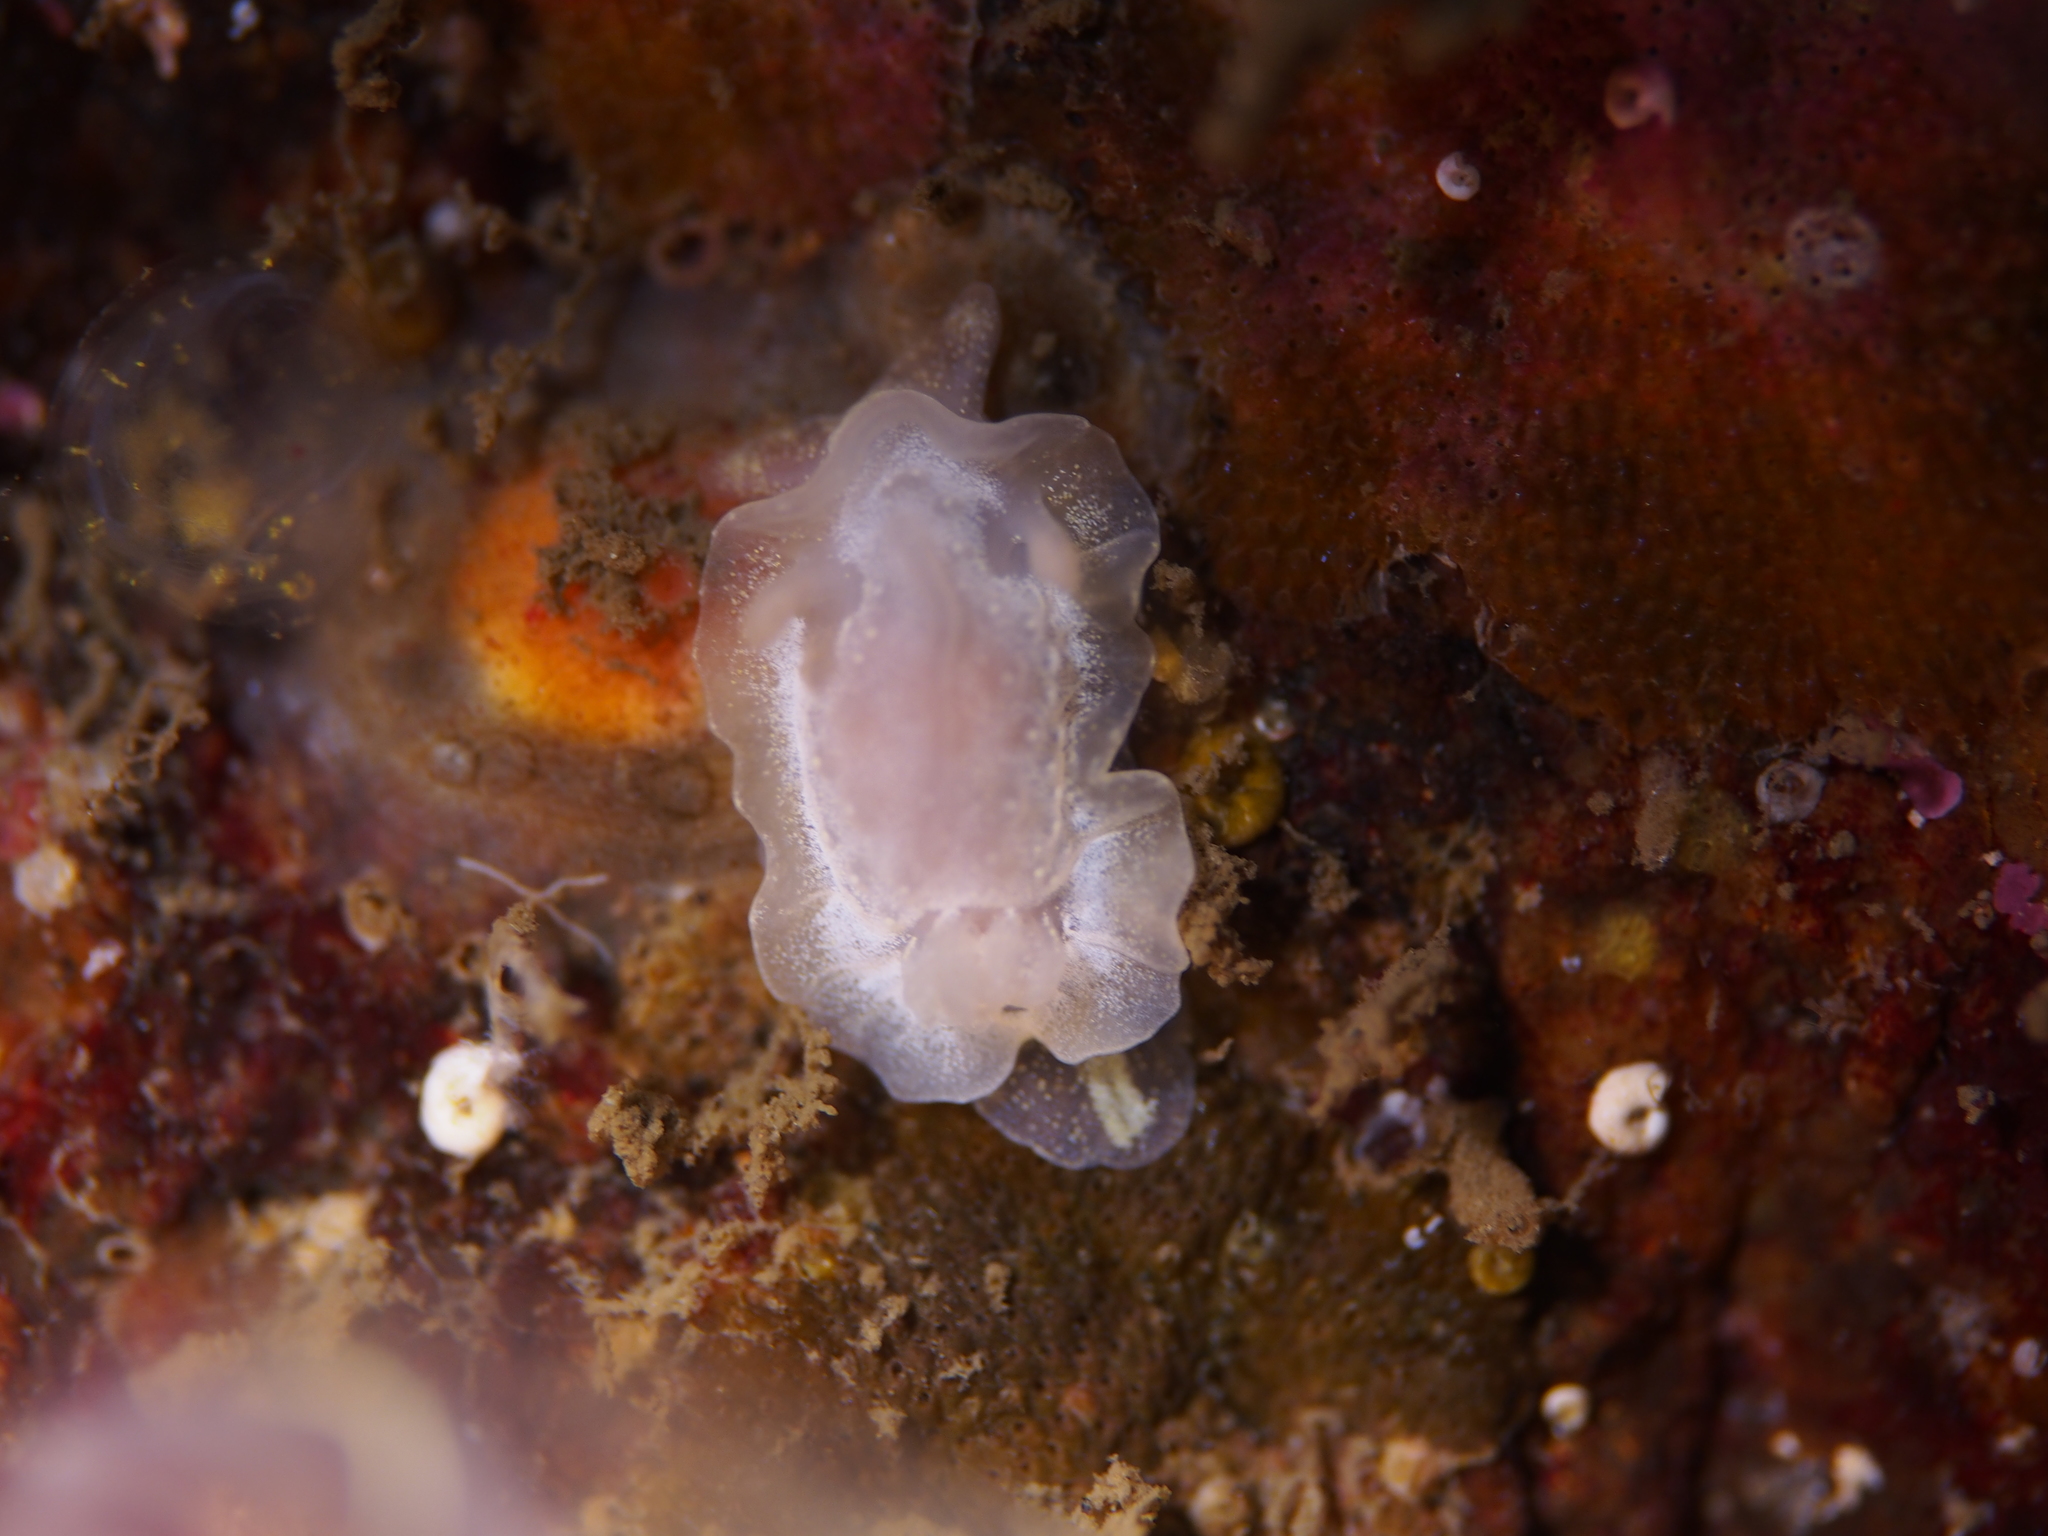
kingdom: Animalia
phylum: Mollusca
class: Gastropoda
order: Nudibranchia
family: Goniodorididae
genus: Okenia
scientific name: Okenia
